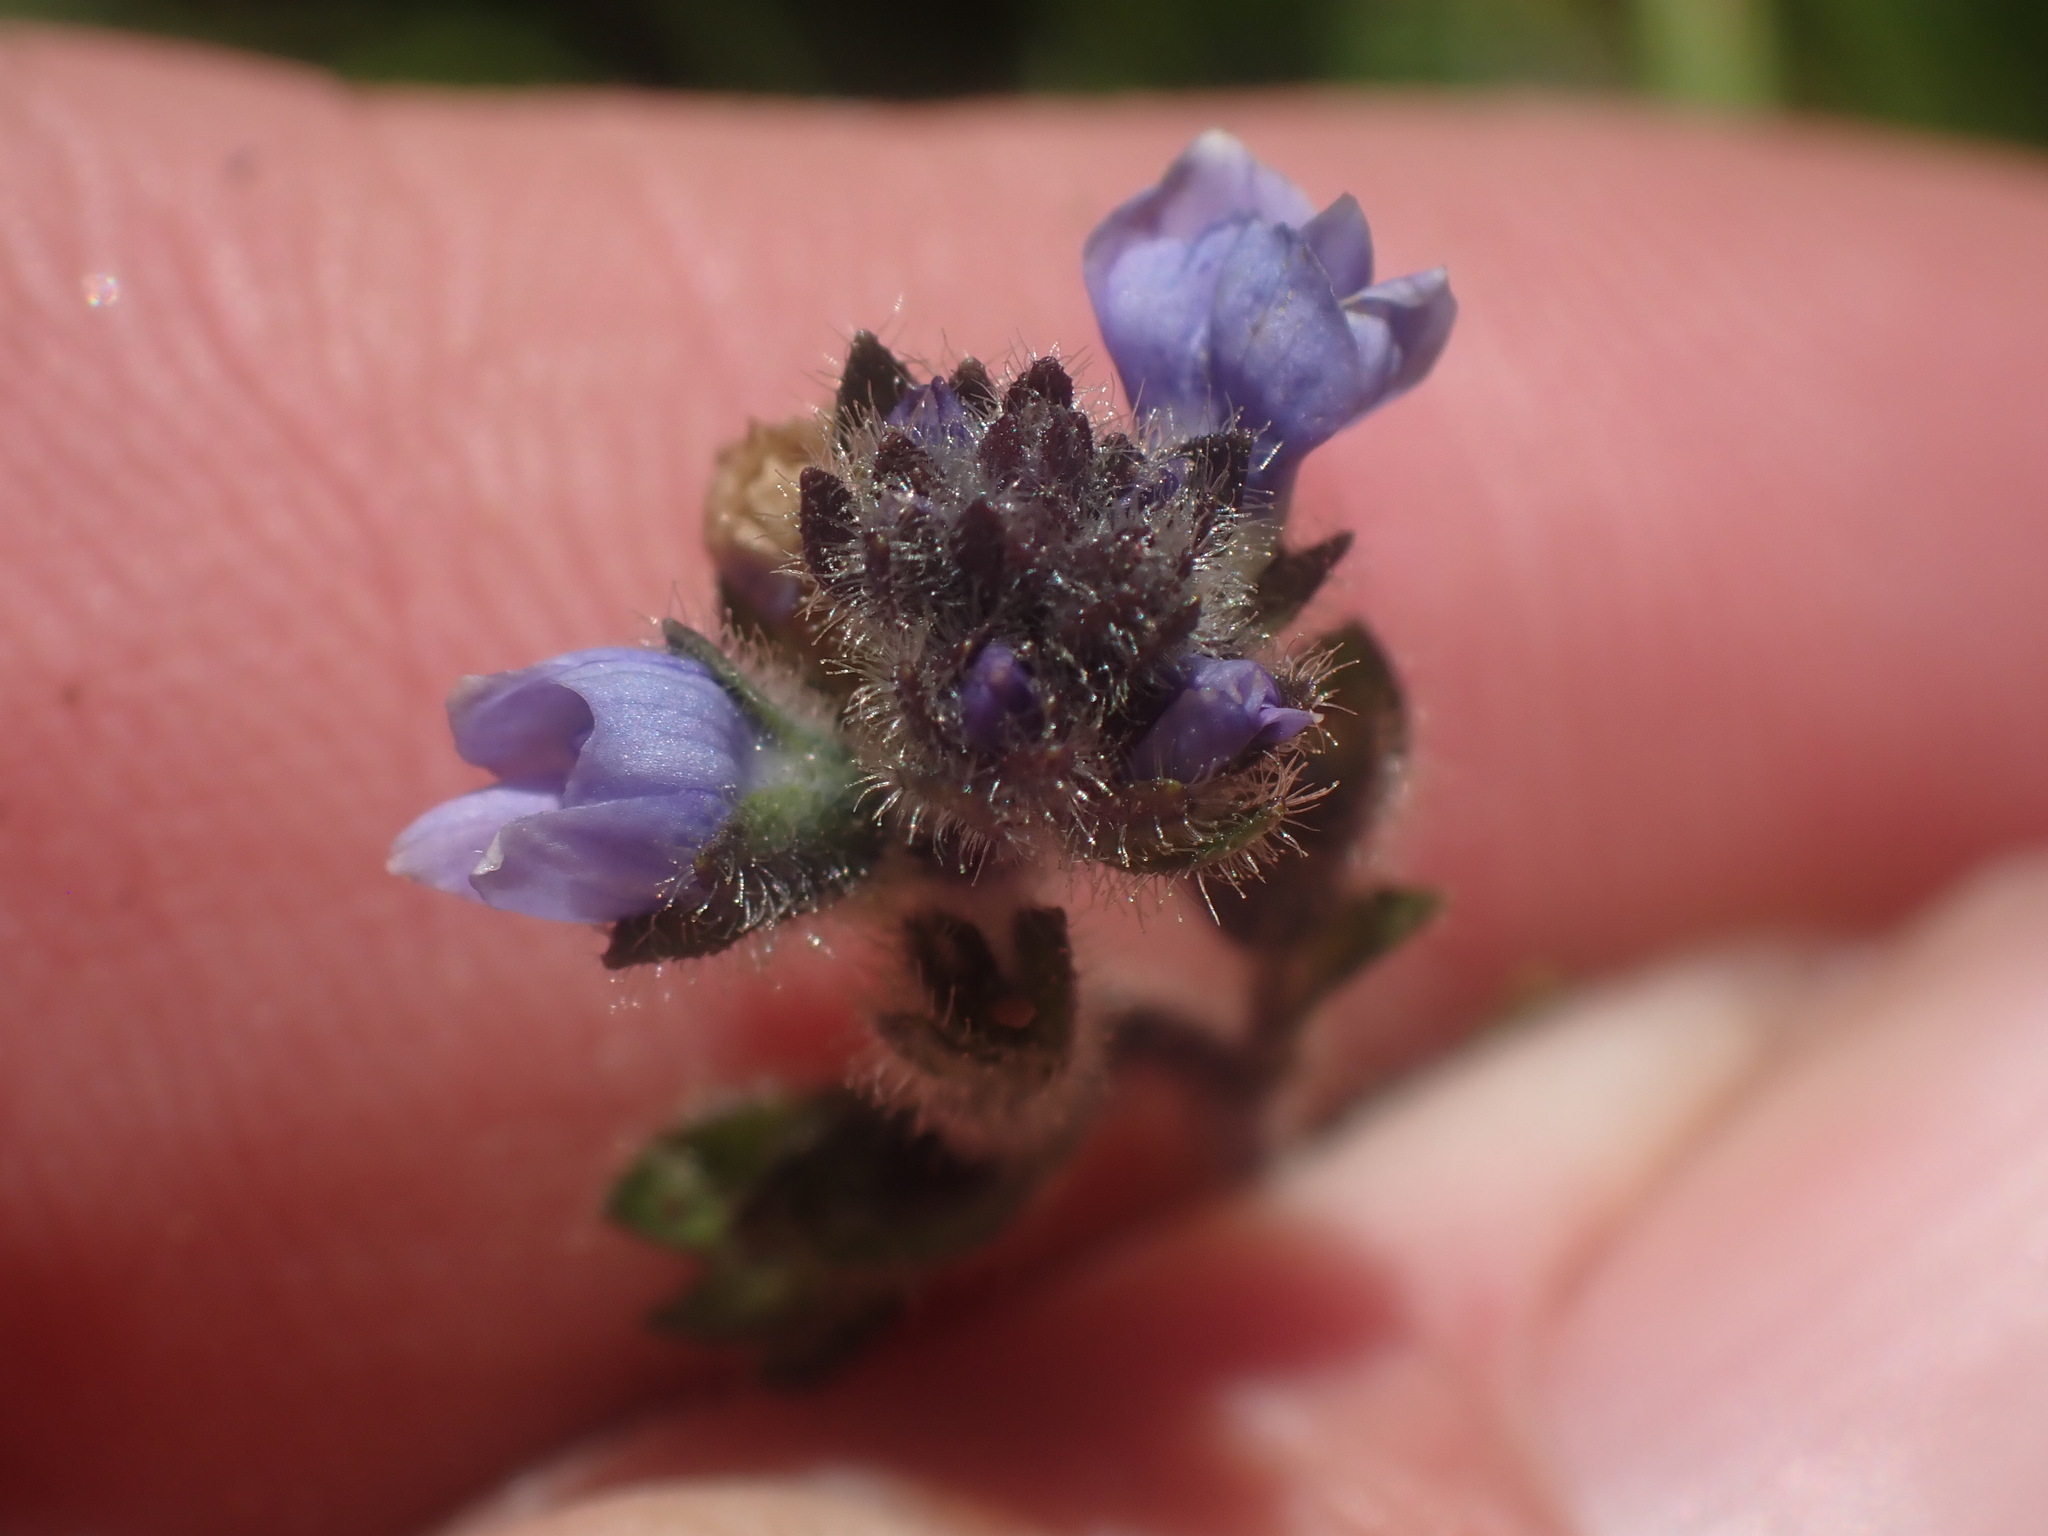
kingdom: Plantae
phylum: Tracheophyta
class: Magnoliopsida
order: Lamiales
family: Plantaginaceae
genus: Veronica
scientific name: Veronica wormskjoldii
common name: American alpine speedwell
